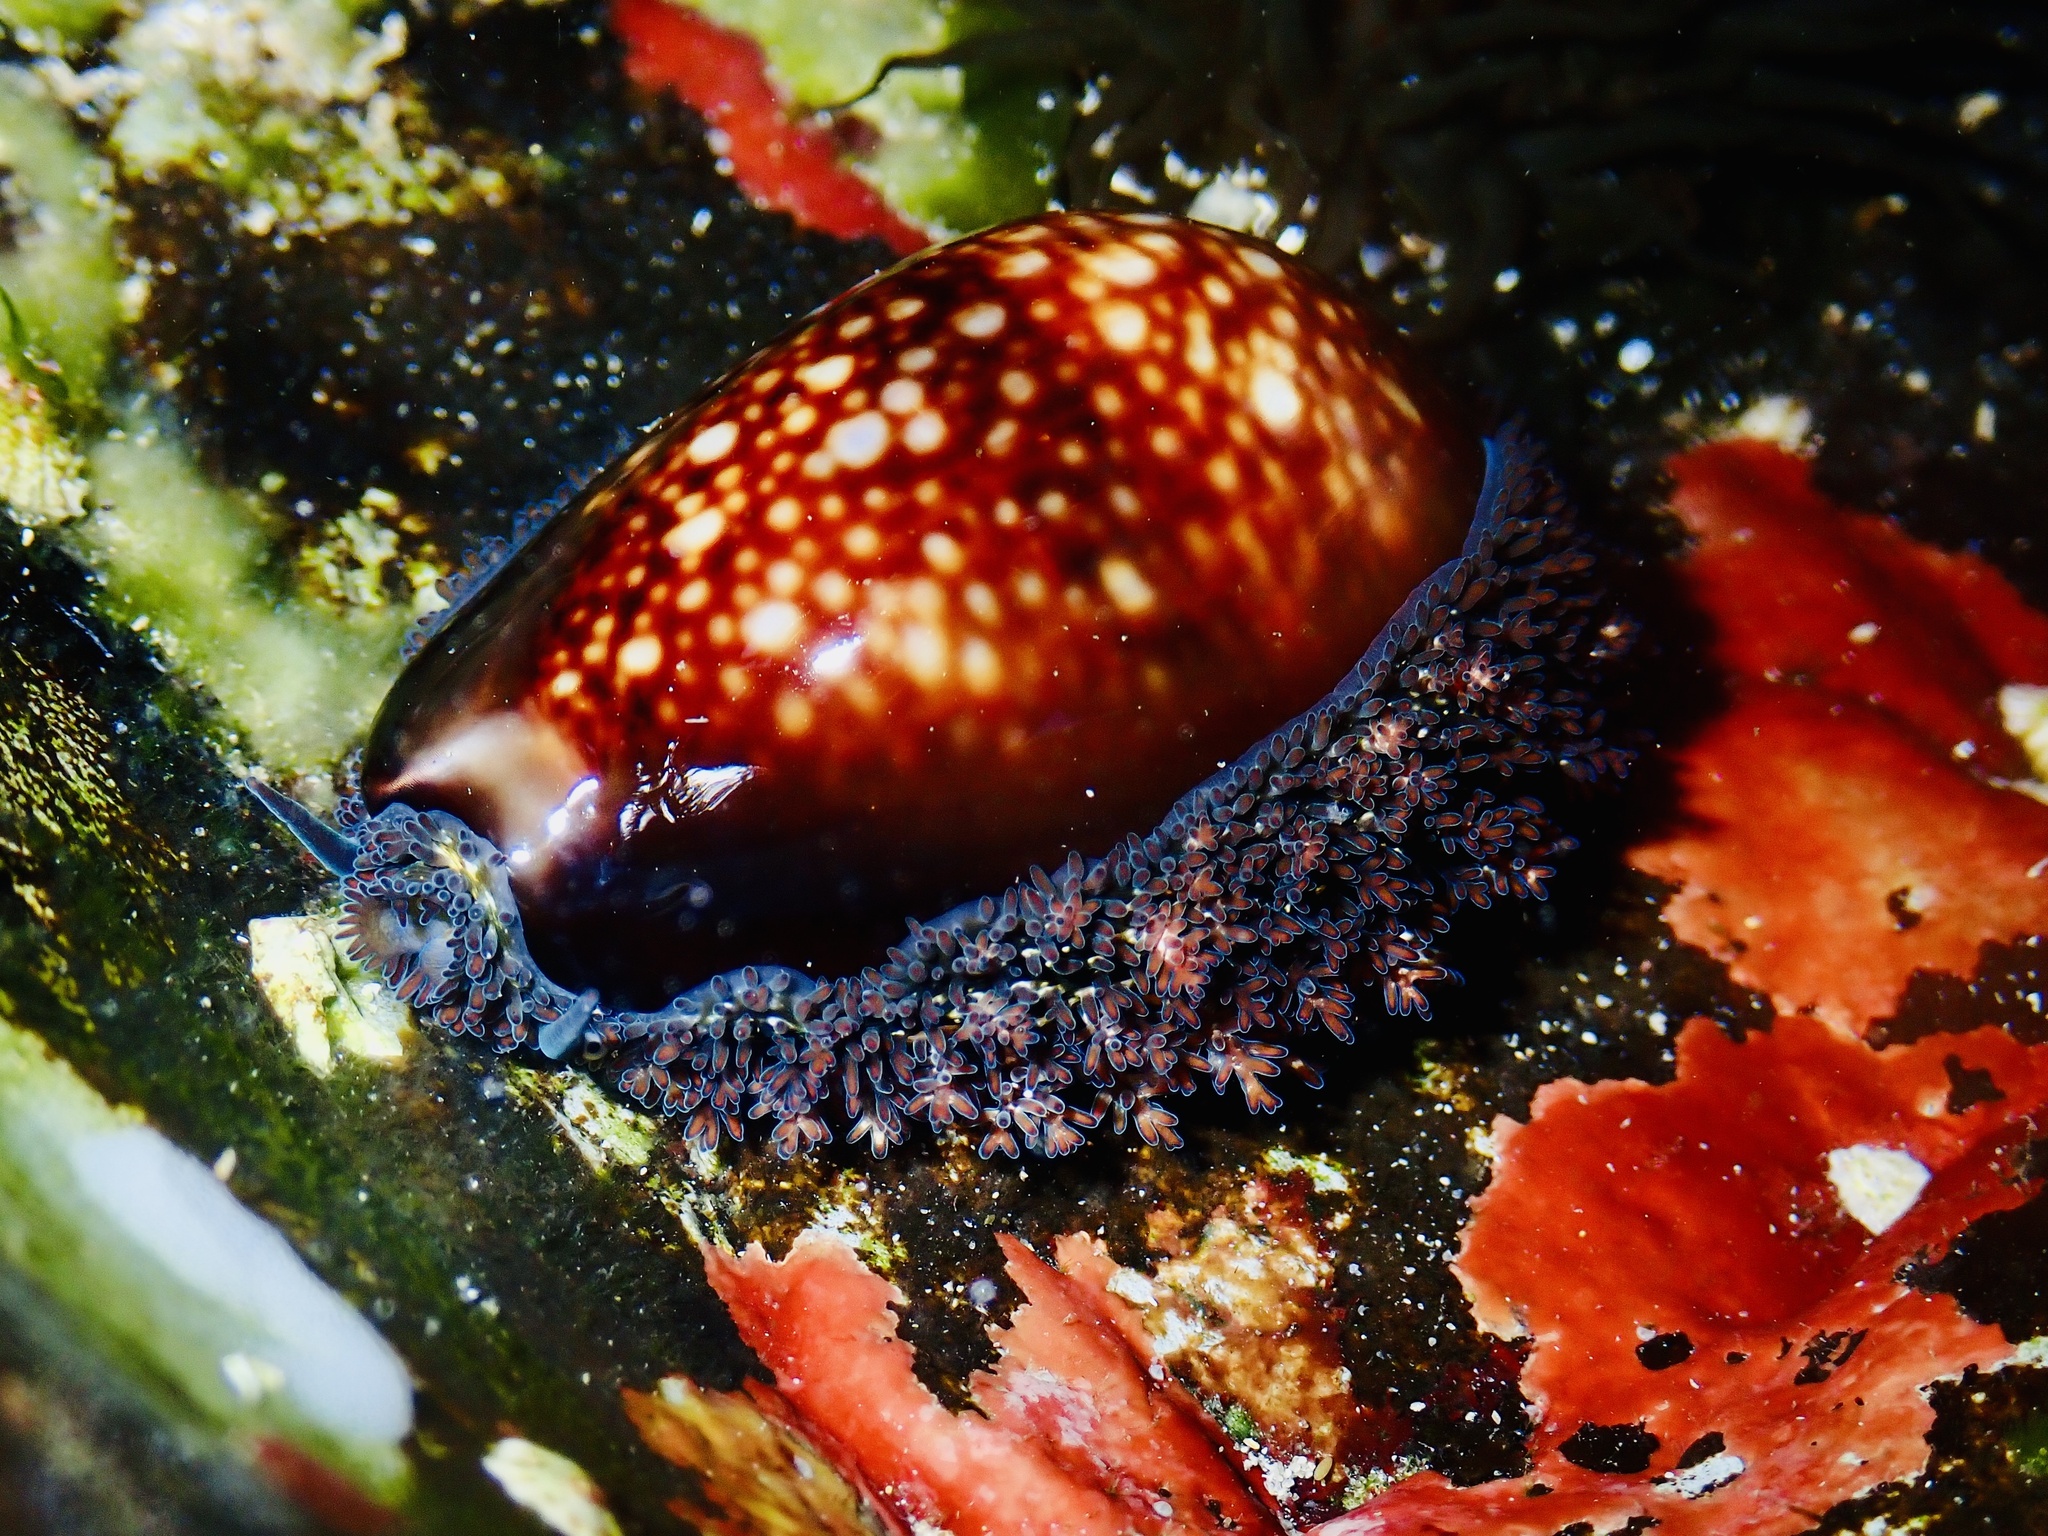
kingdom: Animalia
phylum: Mollusca
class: Gastropoda
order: Littorinimorpha
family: Cypraeidae
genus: Monetaria
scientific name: Monetaria caputserpentis
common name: Serpent's head cowrie
